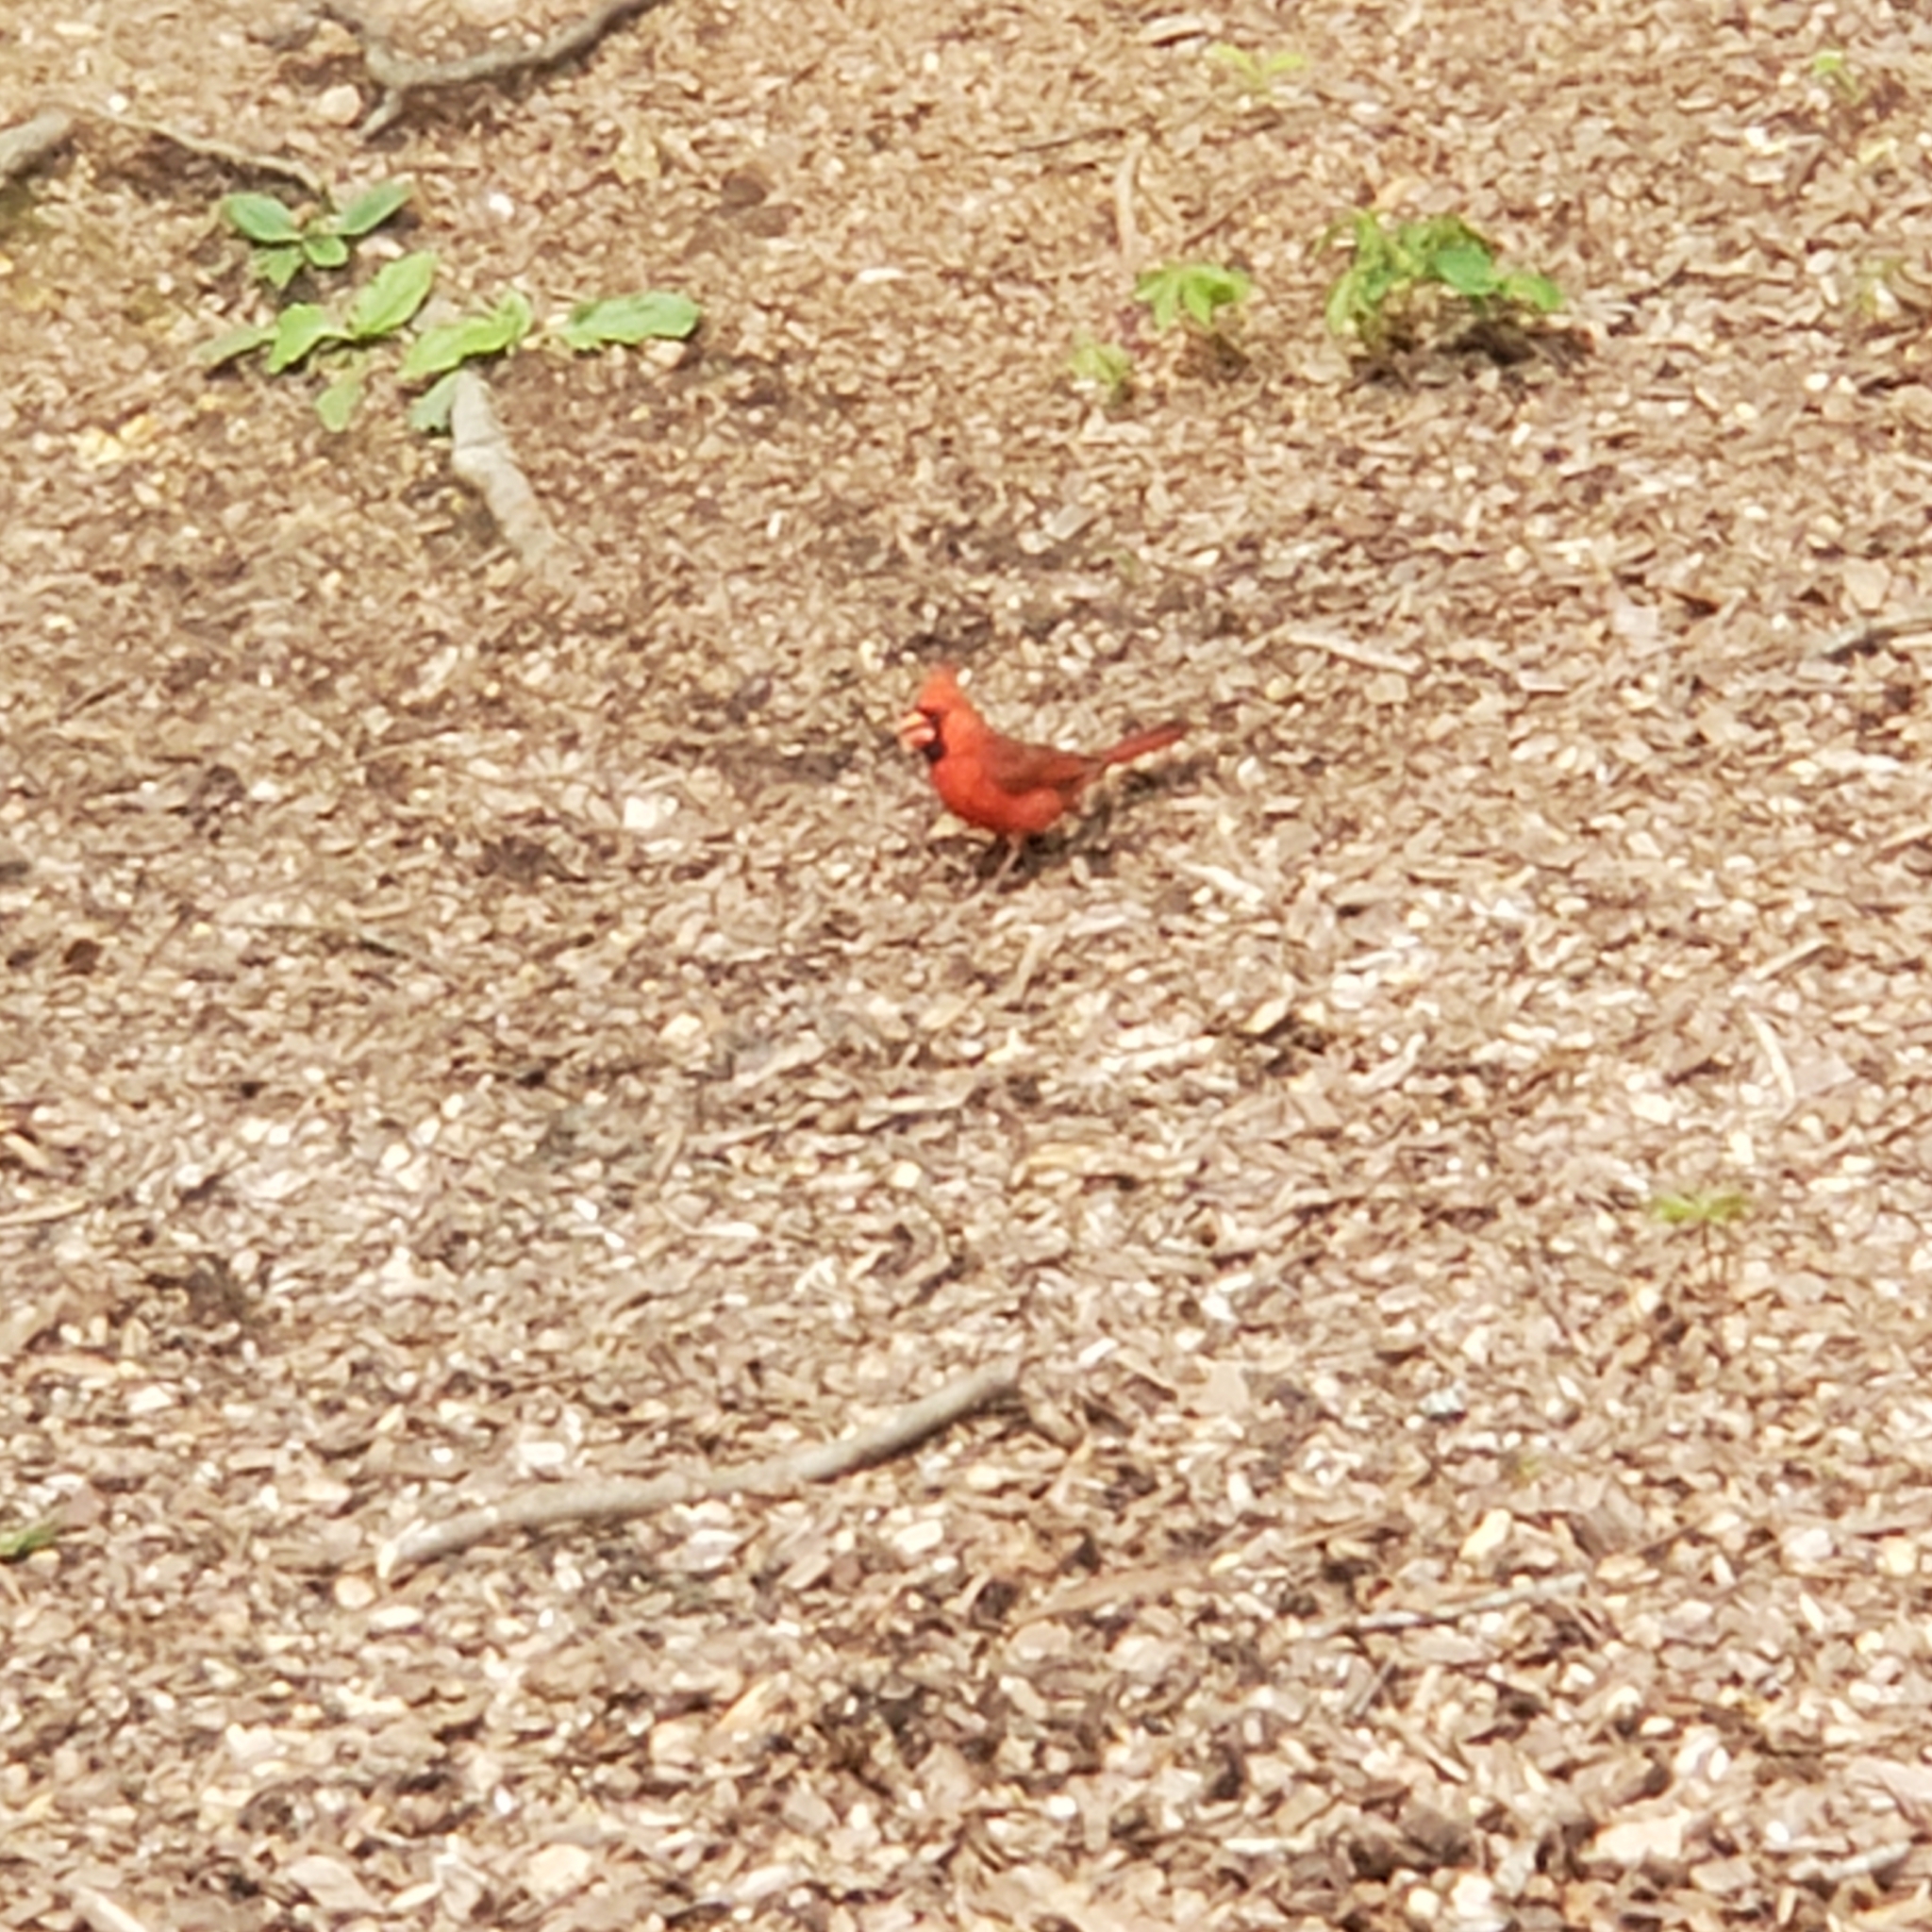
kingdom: Animalia
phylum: Chordata
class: Aves
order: Passeriformes
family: Cardinalidae
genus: Cardinalis
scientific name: Cardinalis cardinalis
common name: Northern cardinal
